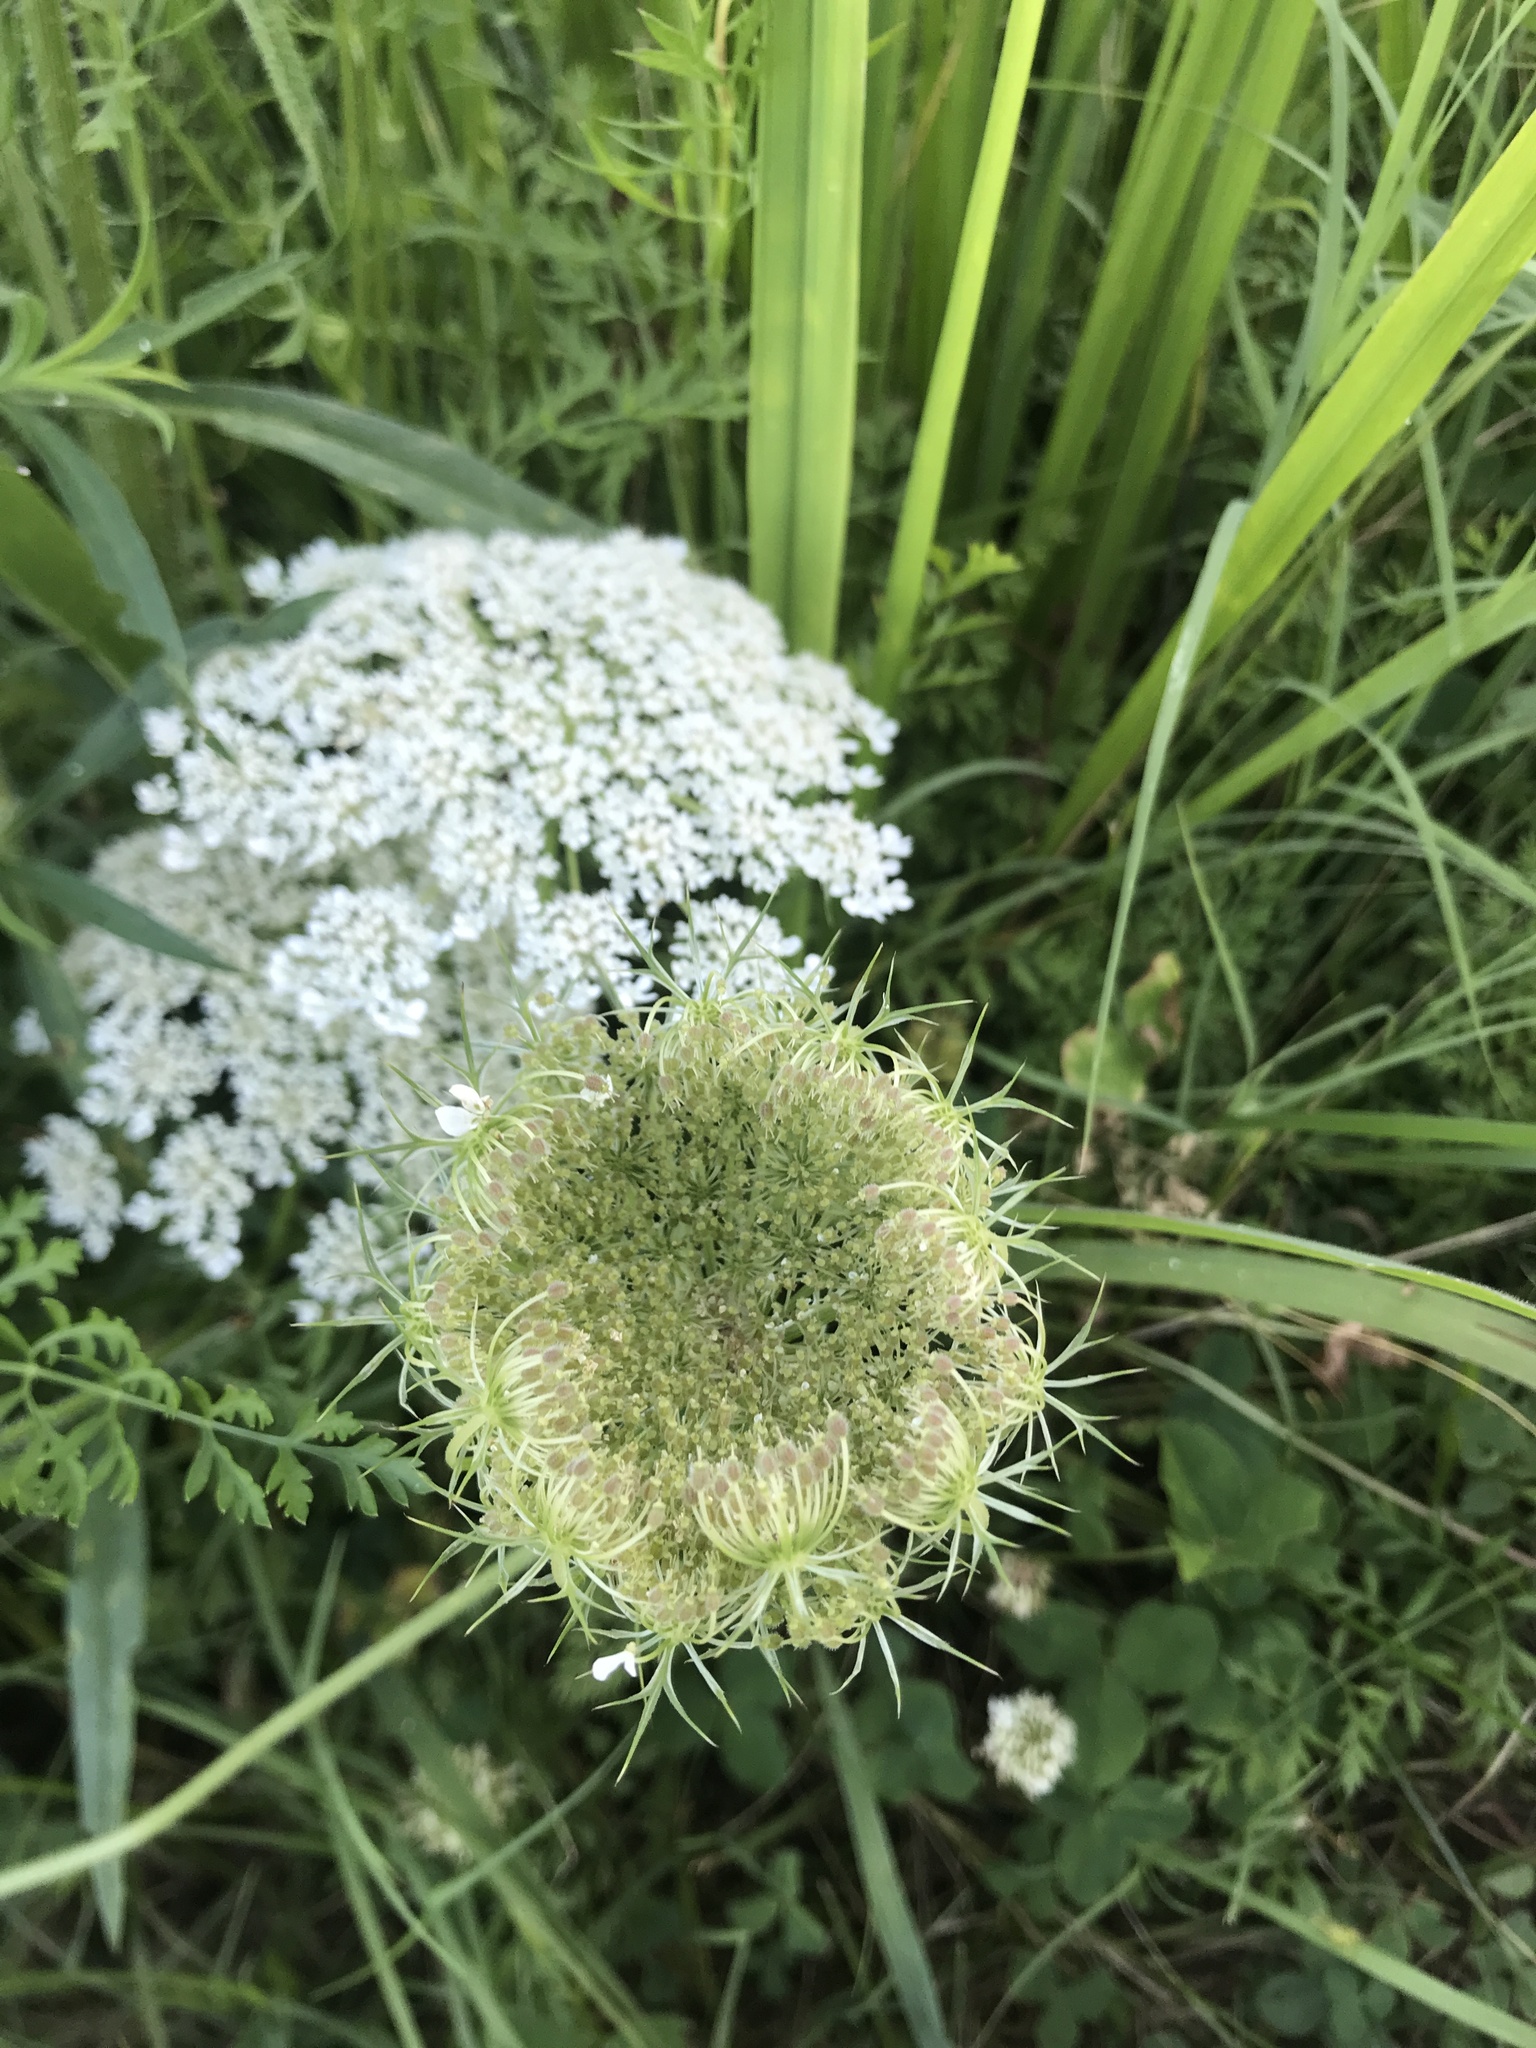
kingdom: Plantae
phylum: Tracheophyta
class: Magnoliopsida
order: Apiales
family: Apiaceae
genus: Daucus
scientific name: Daucus carota
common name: Wild carrot
